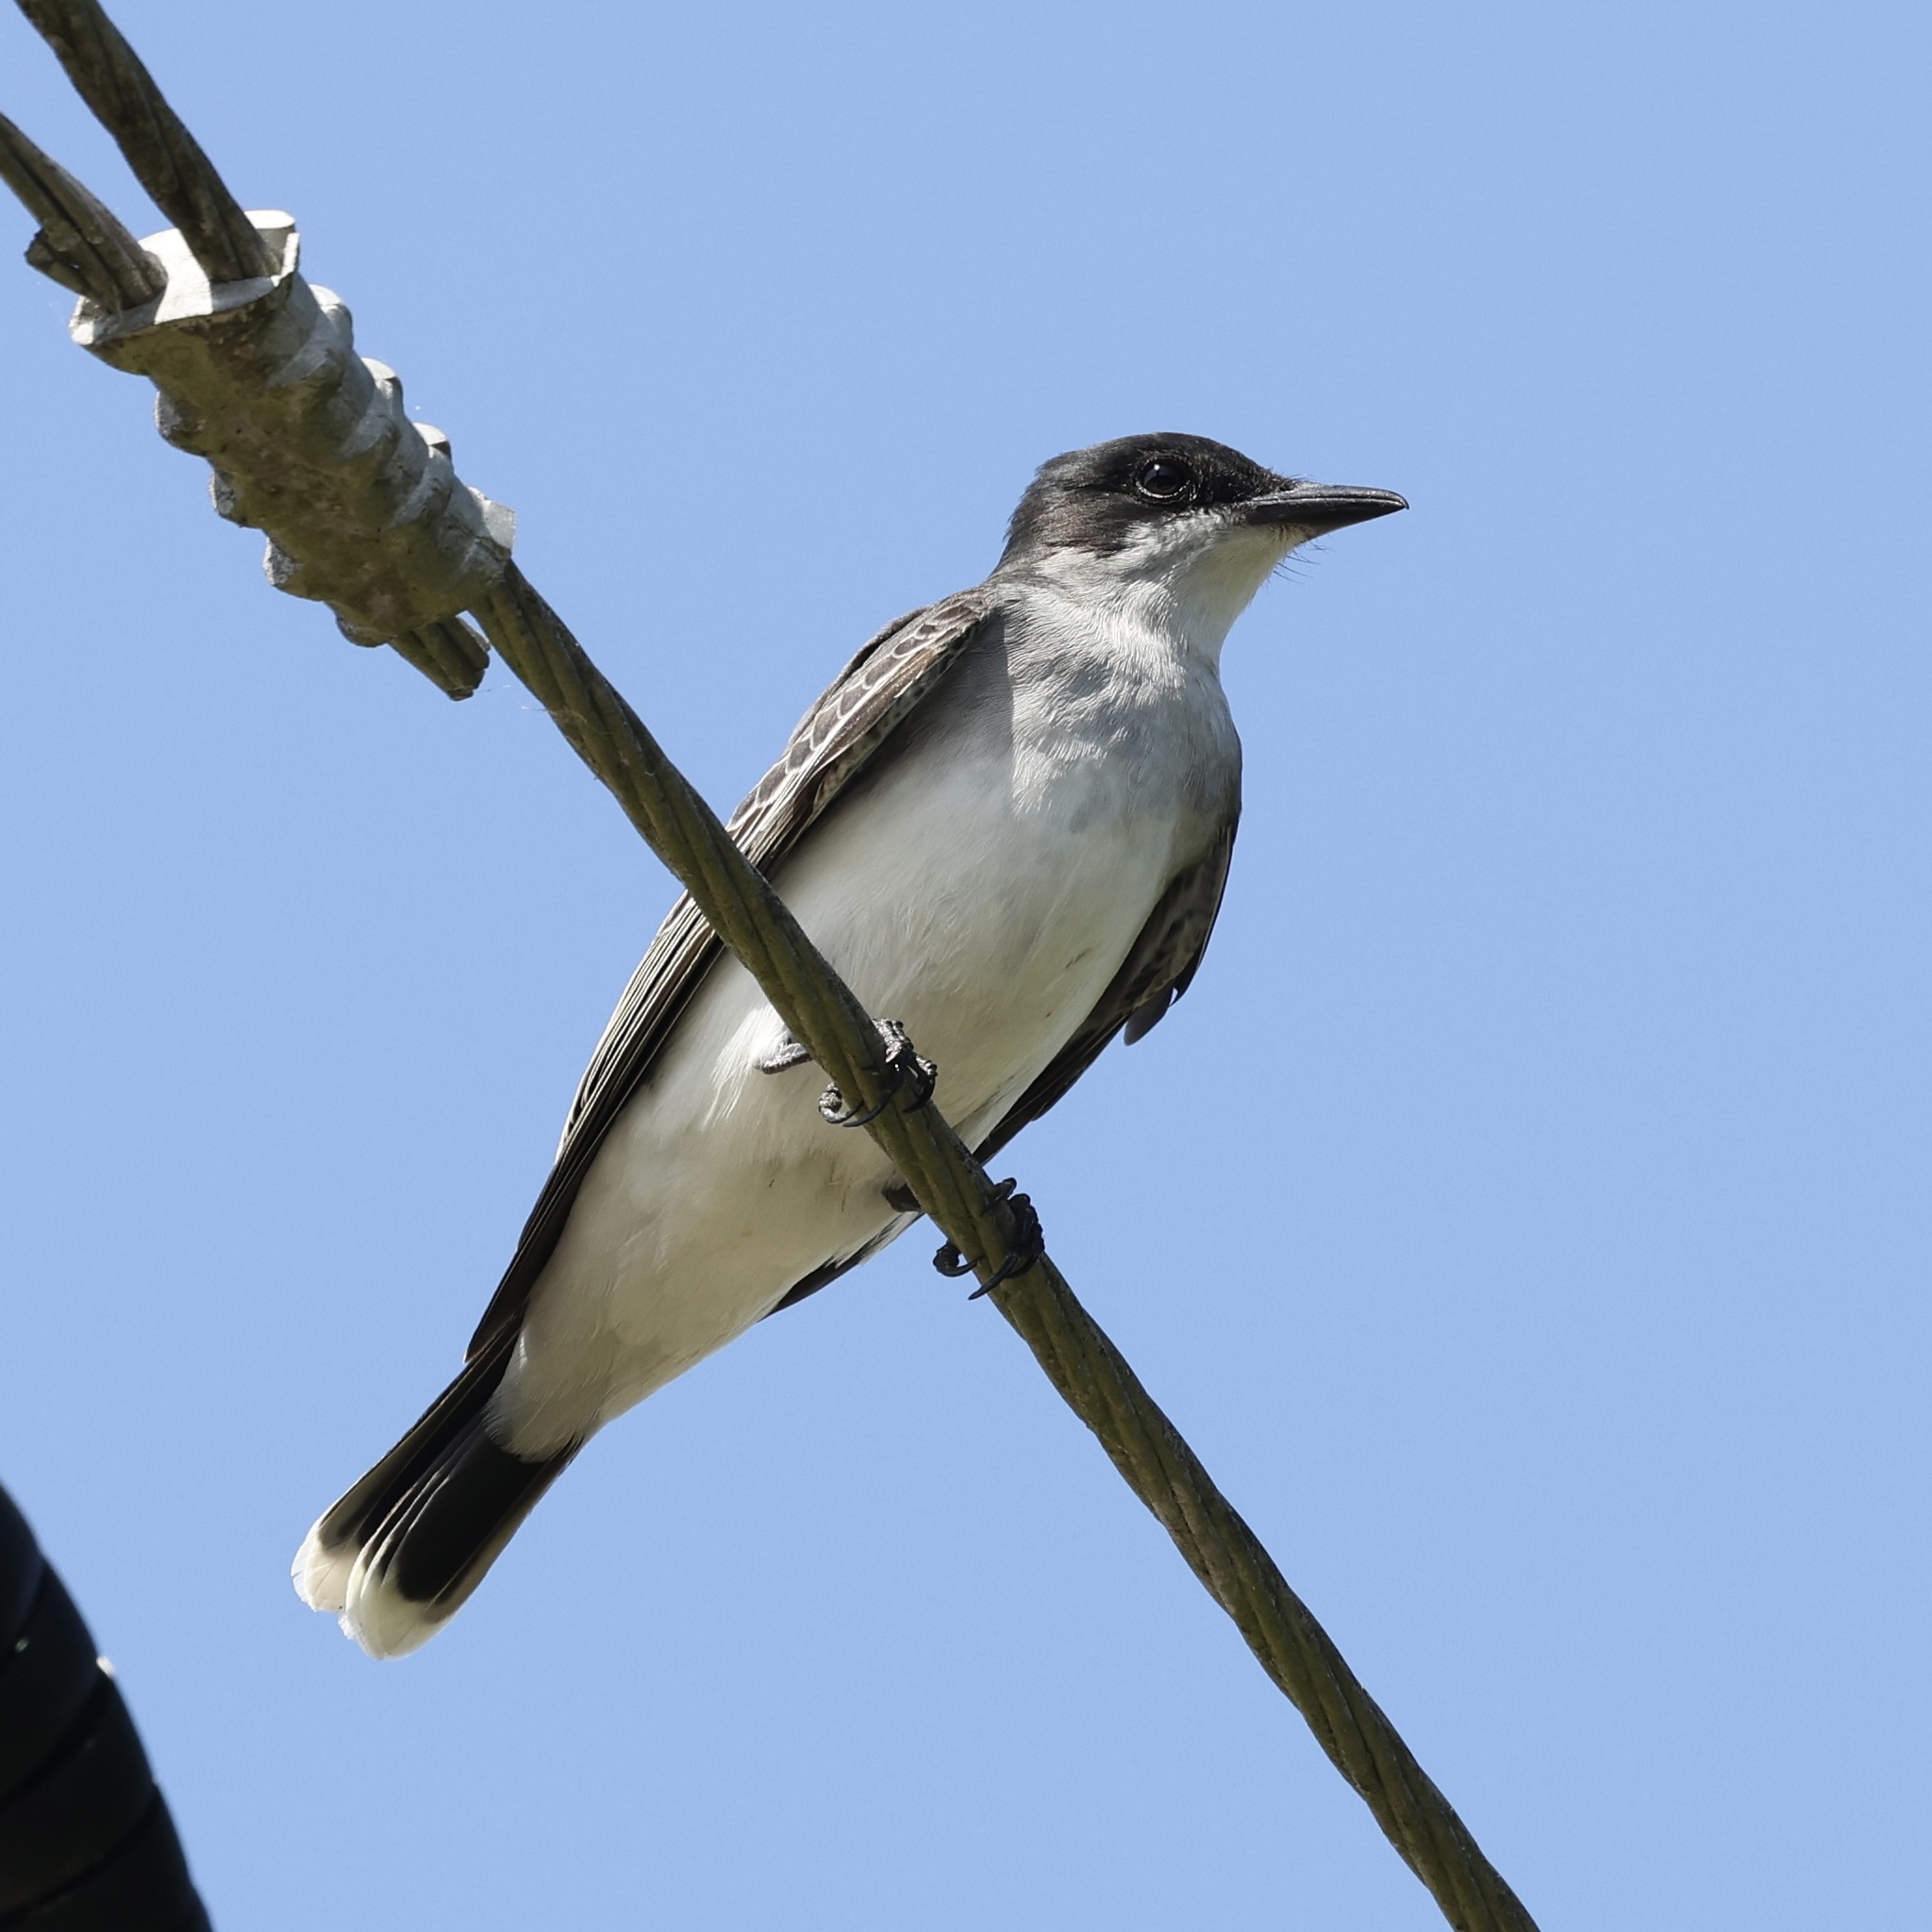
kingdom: Animalia
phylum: Chordata
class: Aves
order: Passeriformes
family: Tyrannidae
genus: Tyrannus
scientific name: Tyrannus tyrannus
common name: Eastern kingbird
